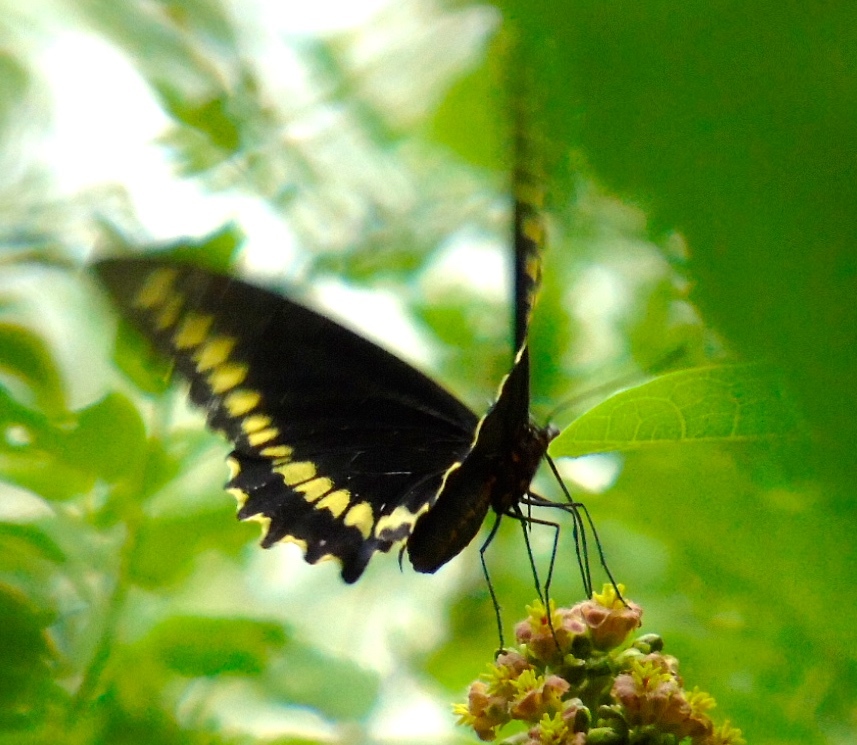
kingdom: Animalia
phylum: Arthropoda
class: Insecta
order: Lepidoptera
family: Papilionidae
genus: Battus
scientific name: Battus polydamas
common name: Polydamas swallowtail
